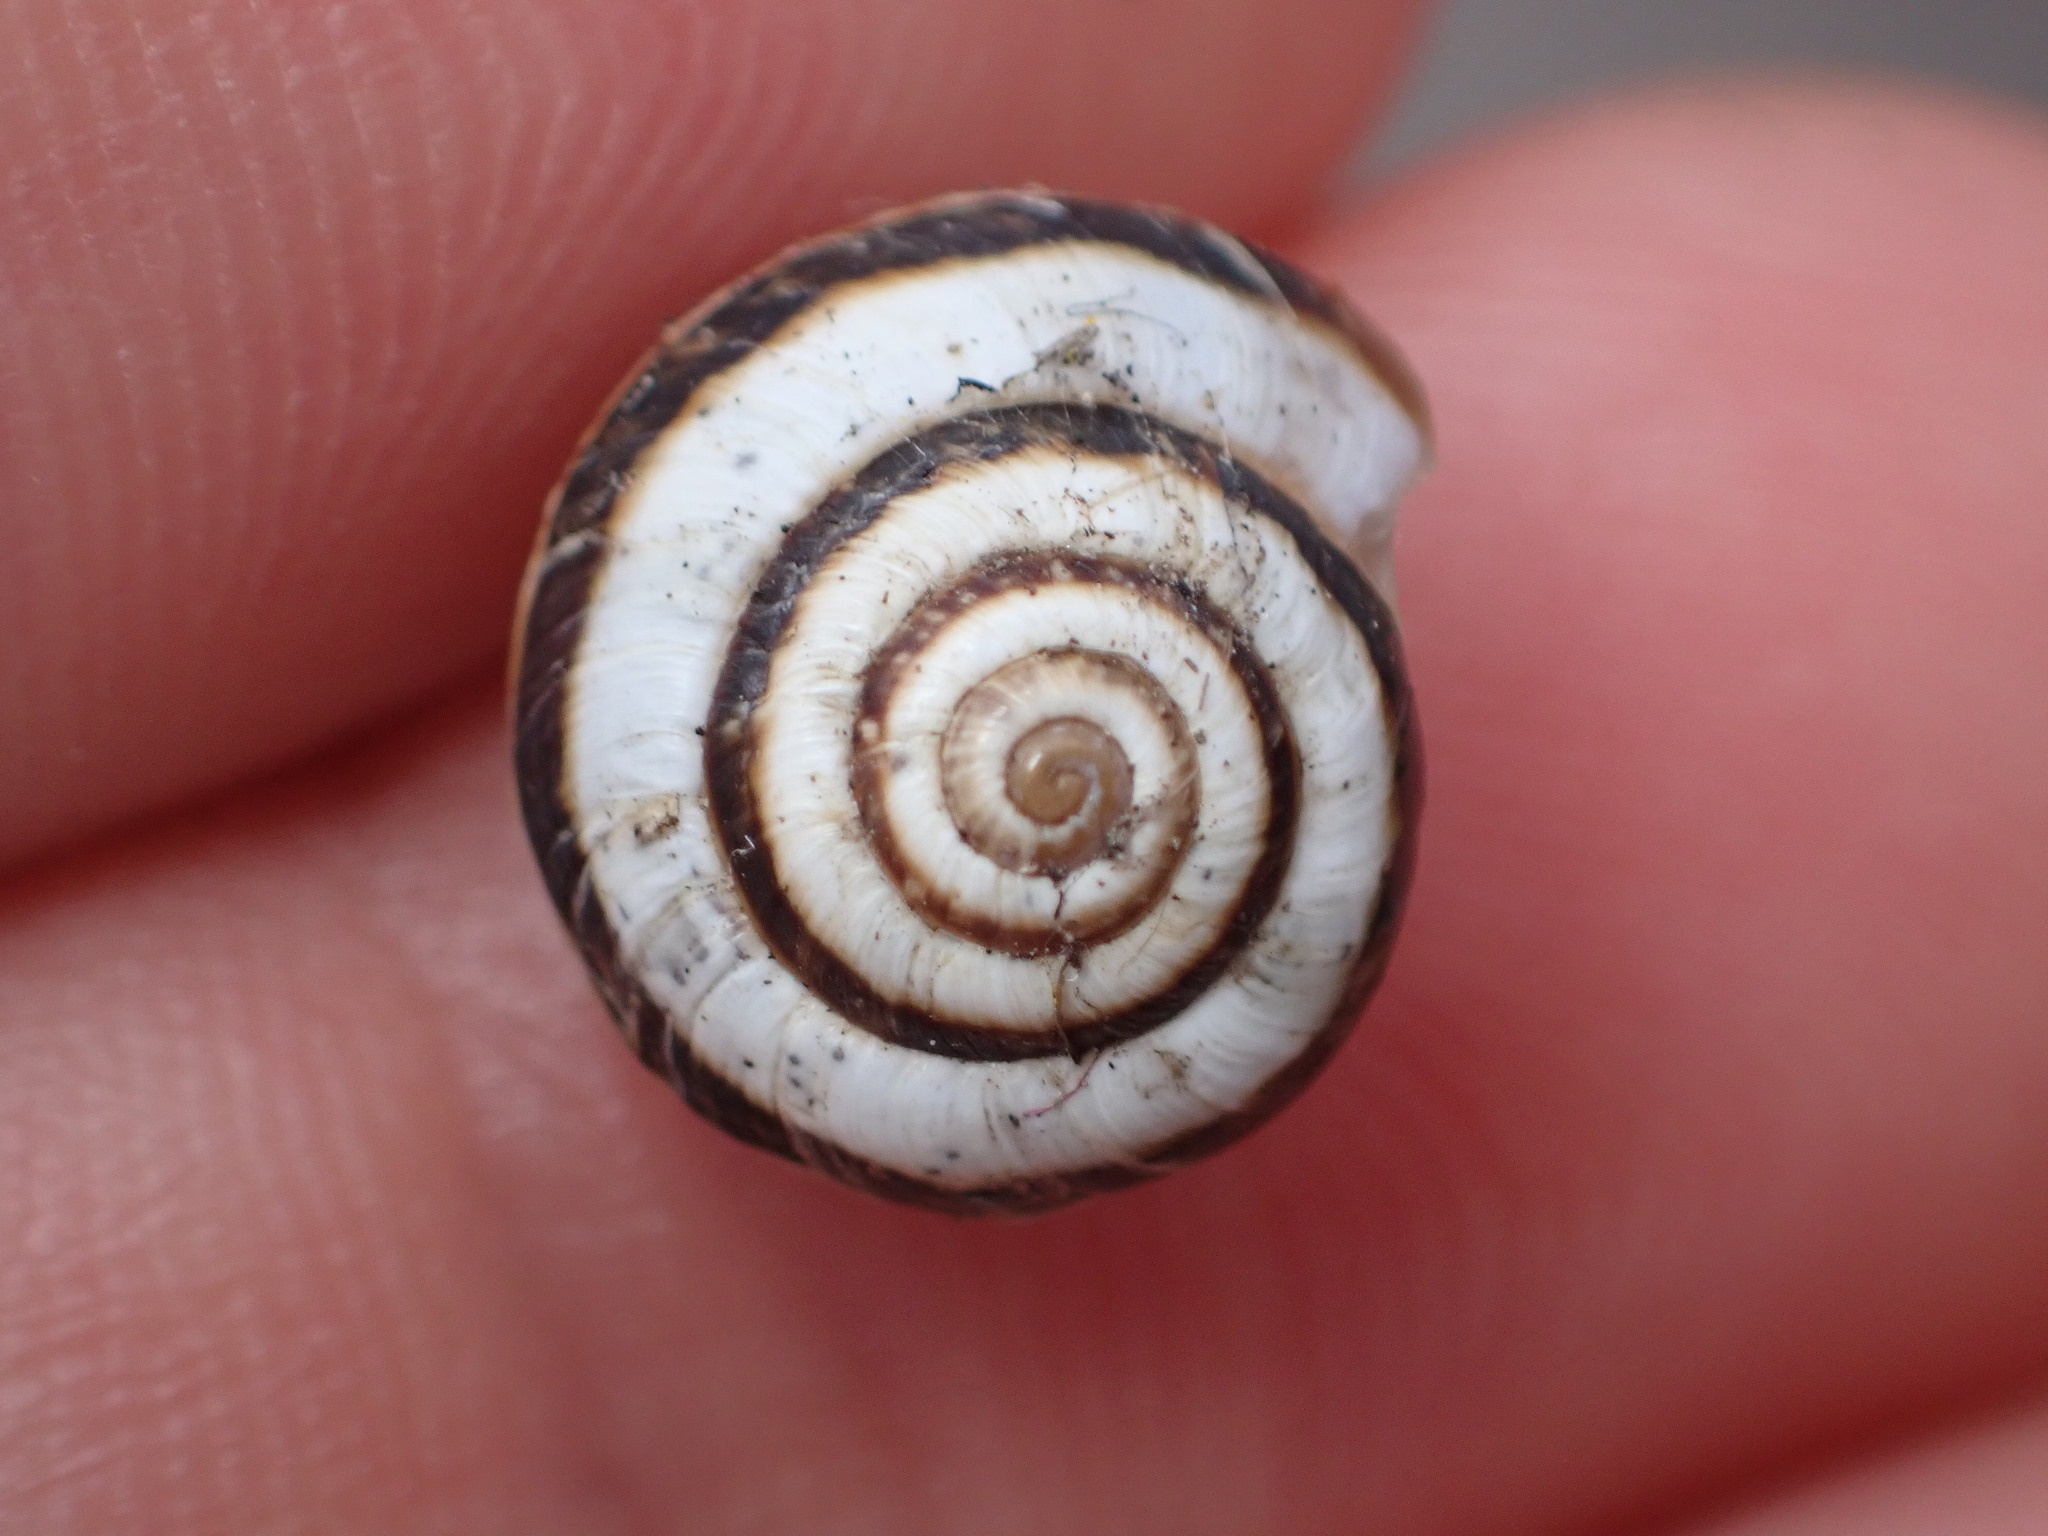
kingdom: Animalia
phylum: Mollusca
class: Gastropoda
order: Stylommatophora
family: Geomitridae
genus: Cernuella
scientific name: Cernuella virgata
